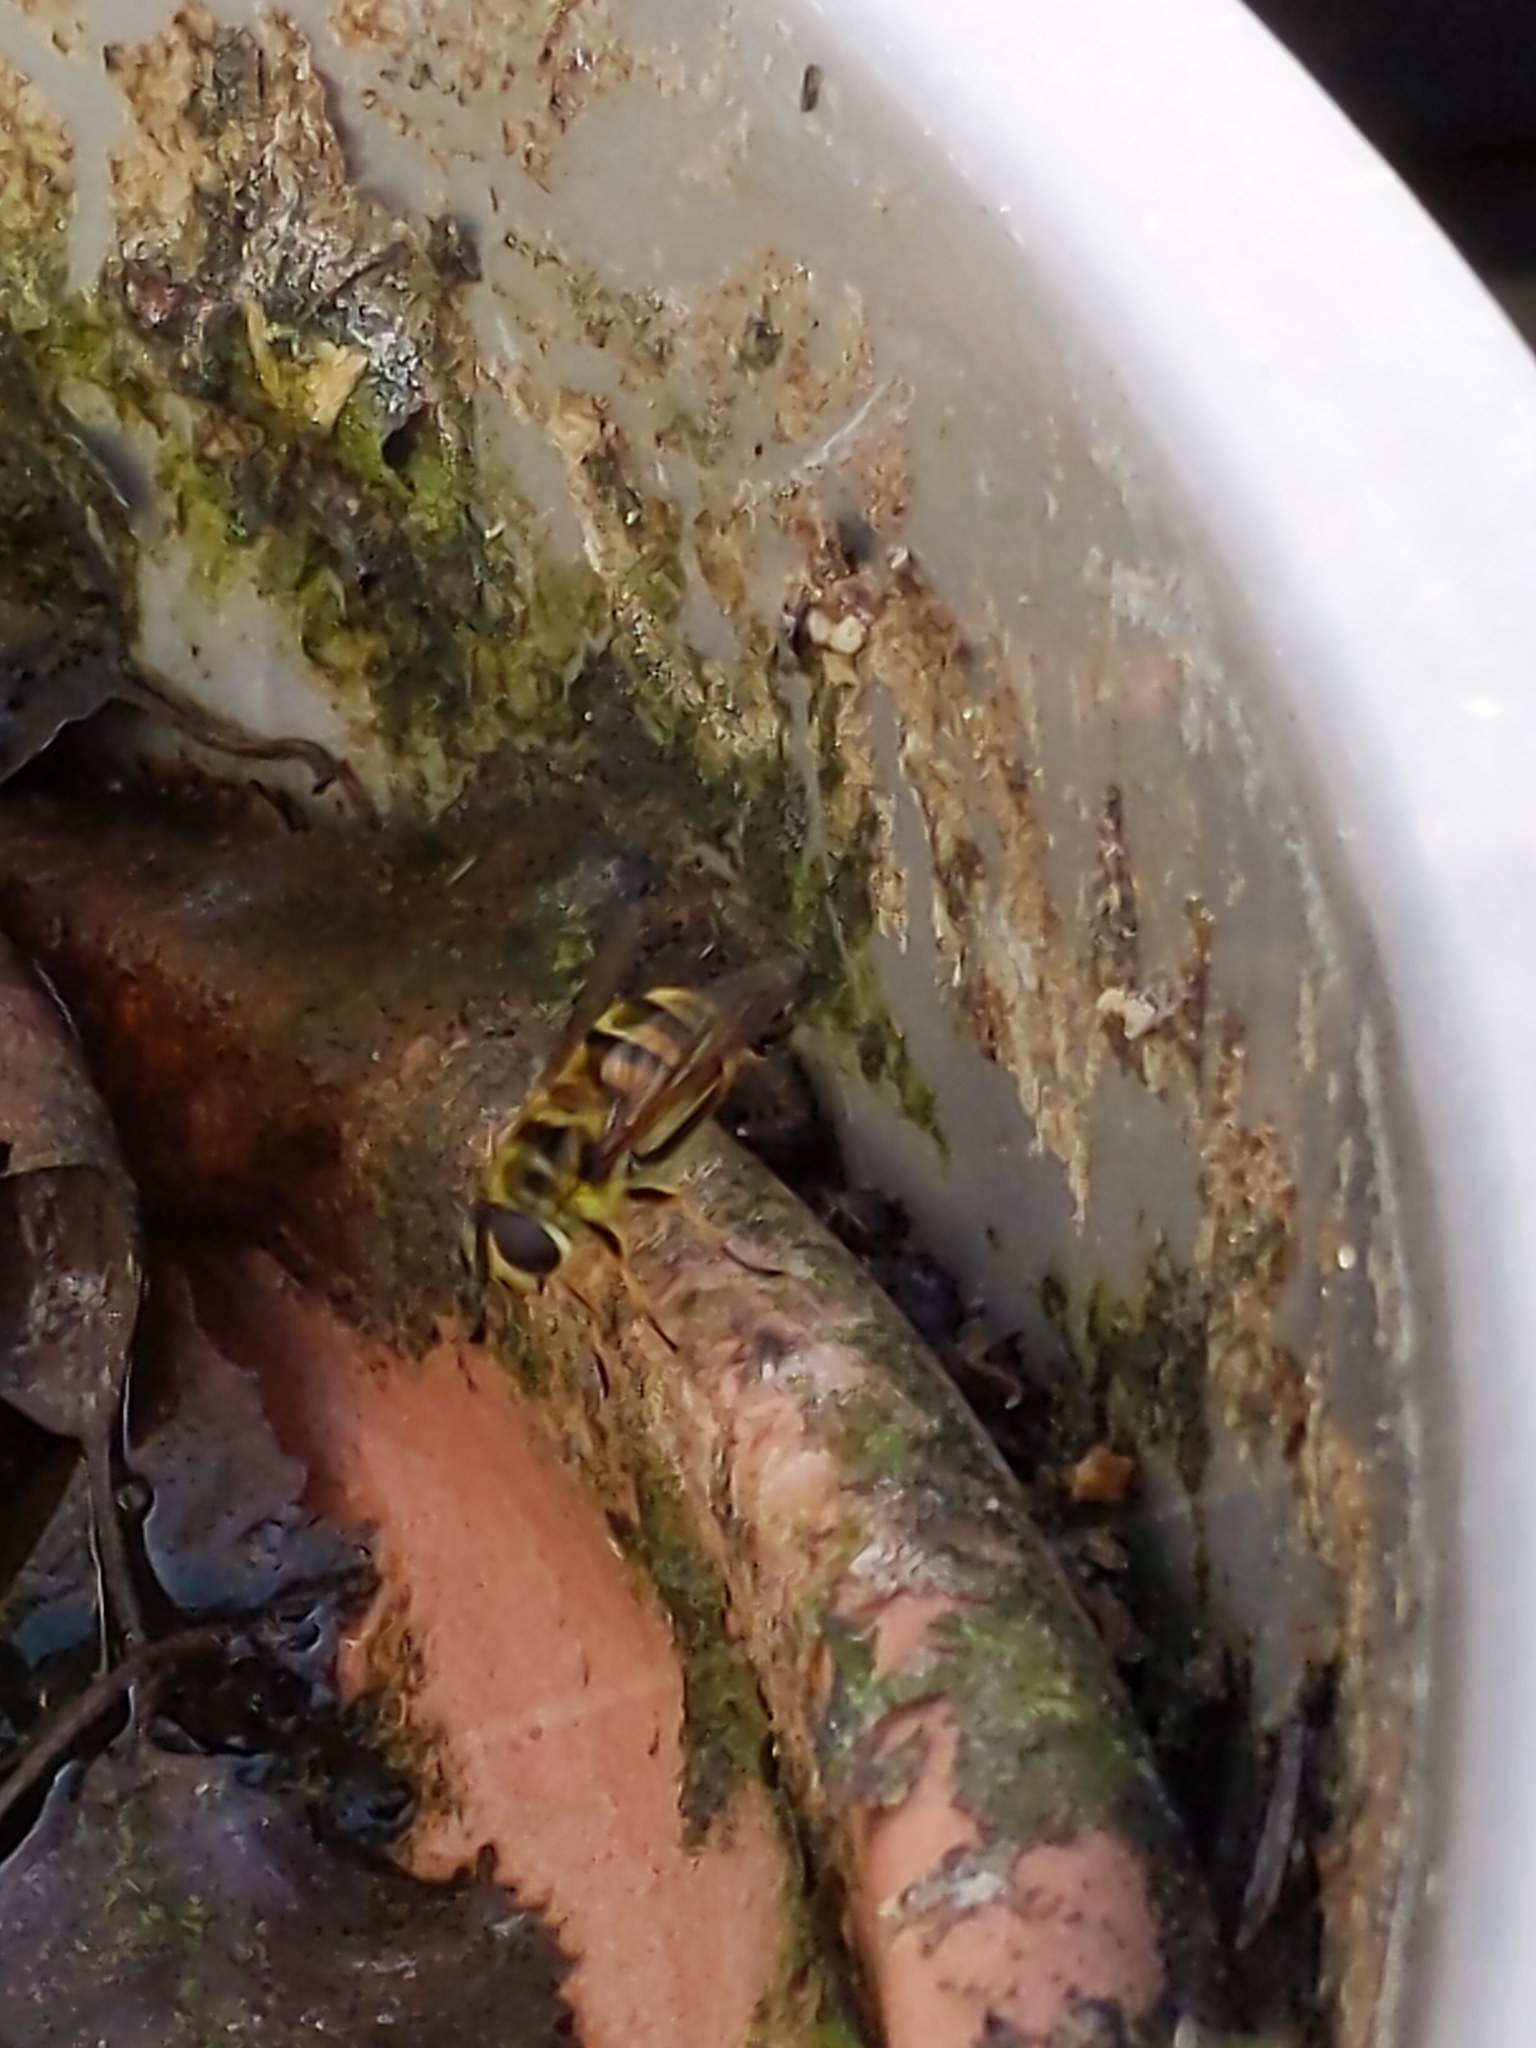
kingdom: Animalia
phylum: Arthropoda
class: Insecta
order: Diptera
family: Syrphidae
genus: Myathropa
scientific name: Myathropa florea
